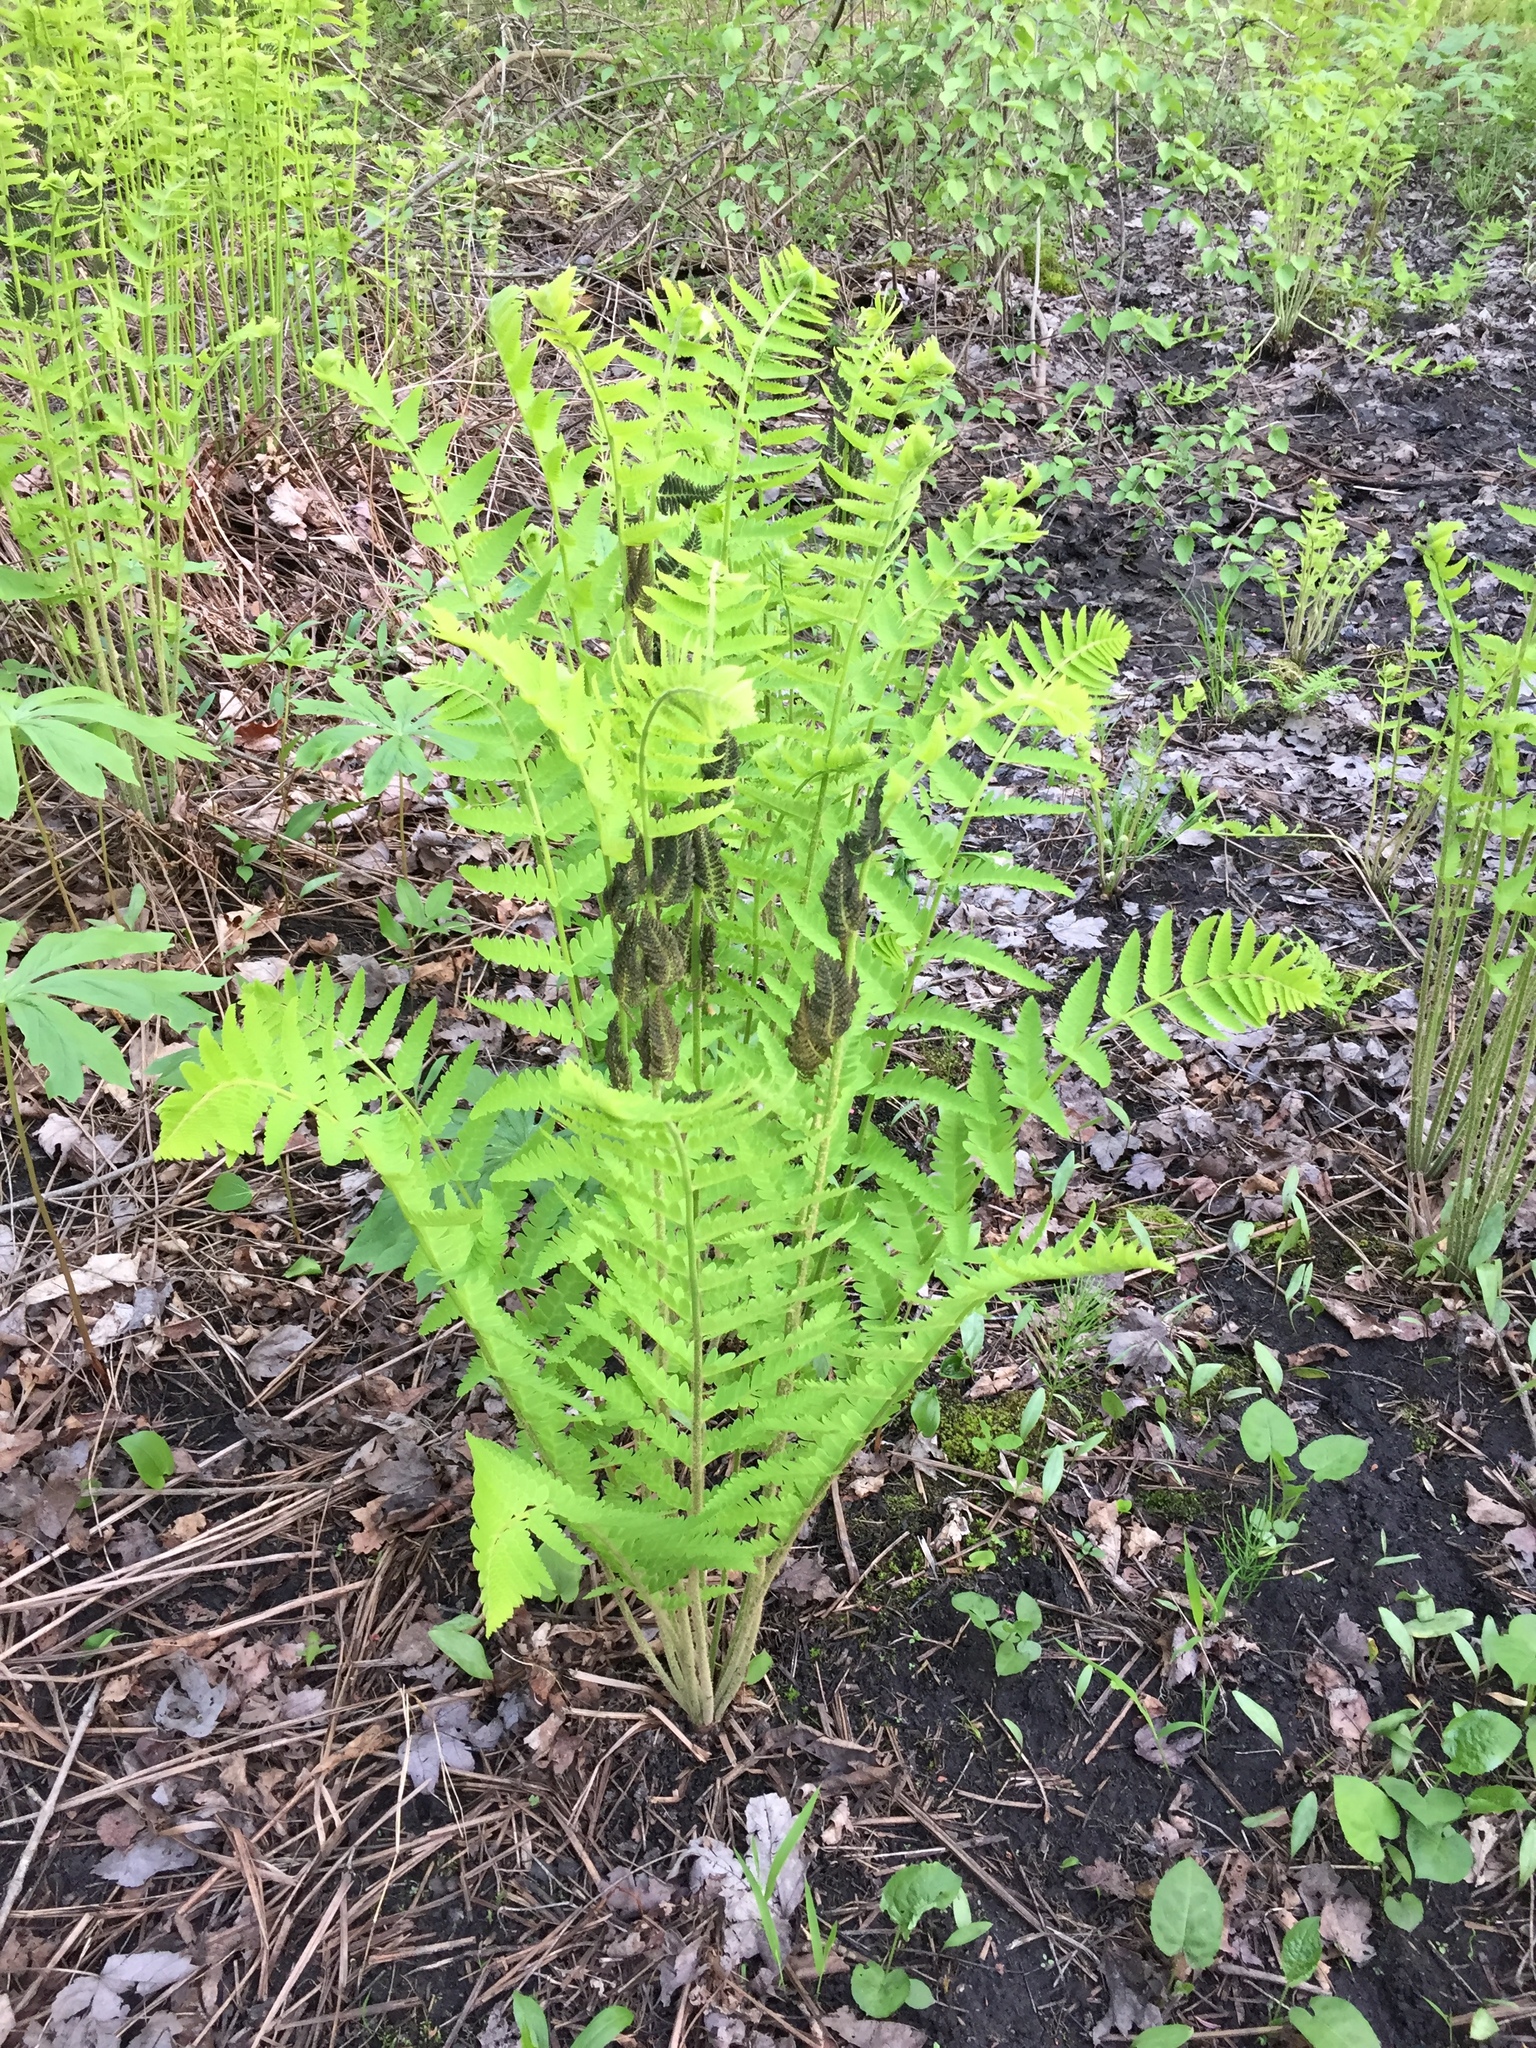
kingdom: Plantae
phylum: Tracheophyta
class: Polypodiopsida
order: Osmundales
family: Osmundaceae
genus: Claytosmunda
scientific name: Claytosmunda claytoniana
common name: Clayton's fern
